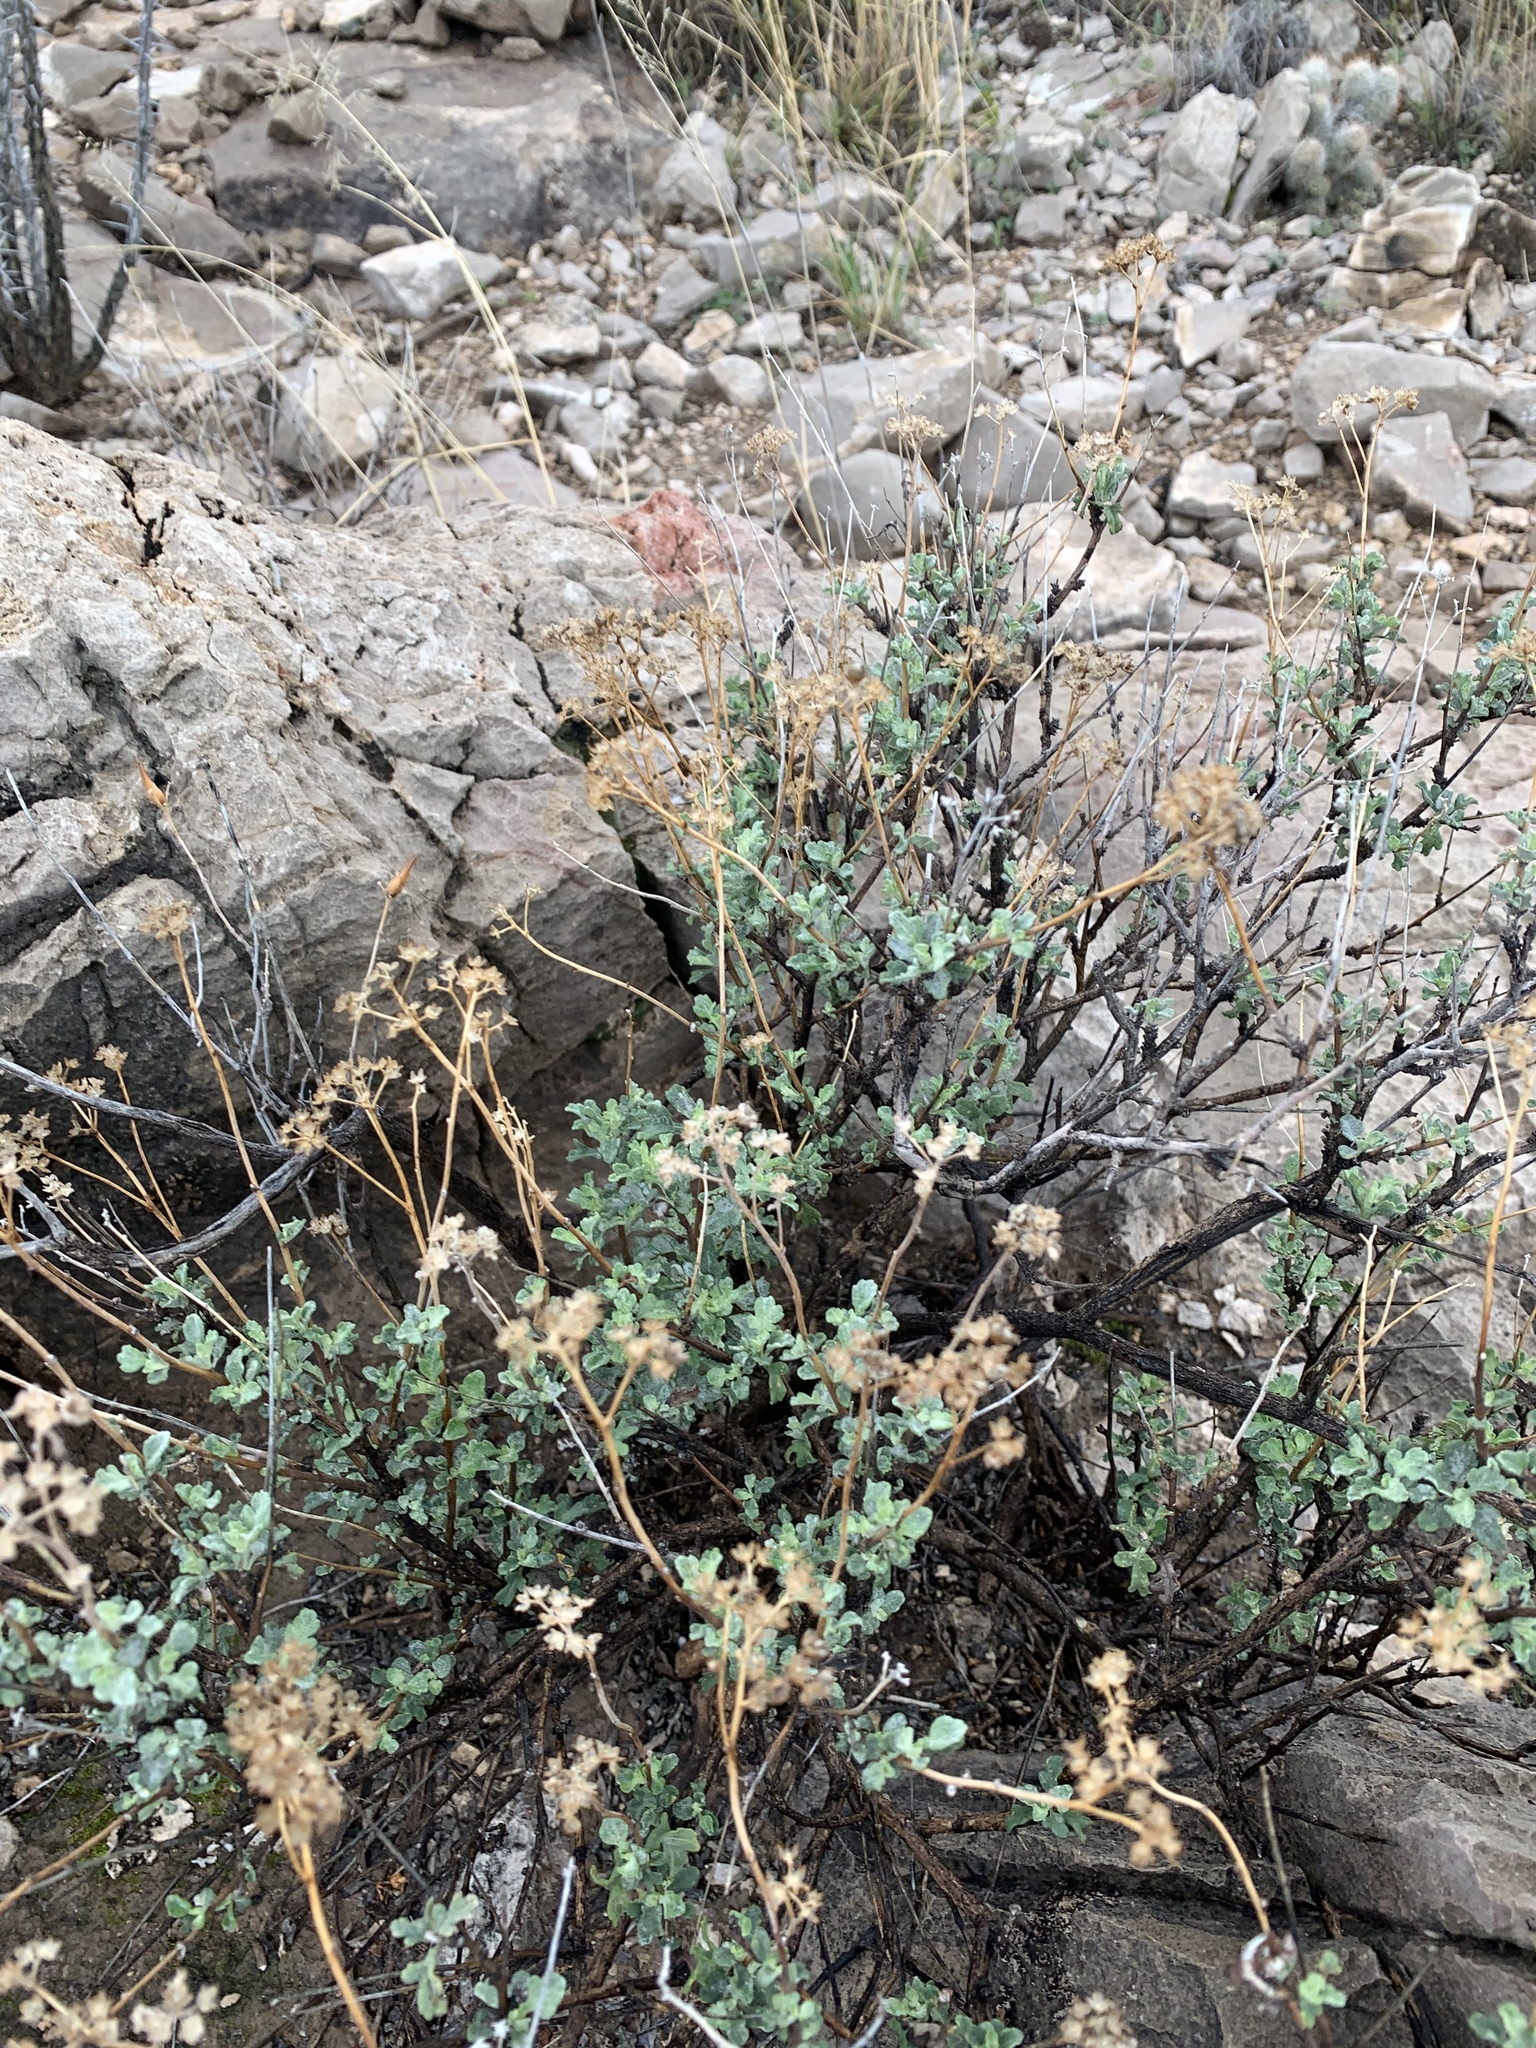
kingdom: Plantae
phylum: Tracheophyta
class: Magnoliopsida
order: Asterales
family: Asteraceae
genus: Parthenium
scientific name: Parthenium incanum
